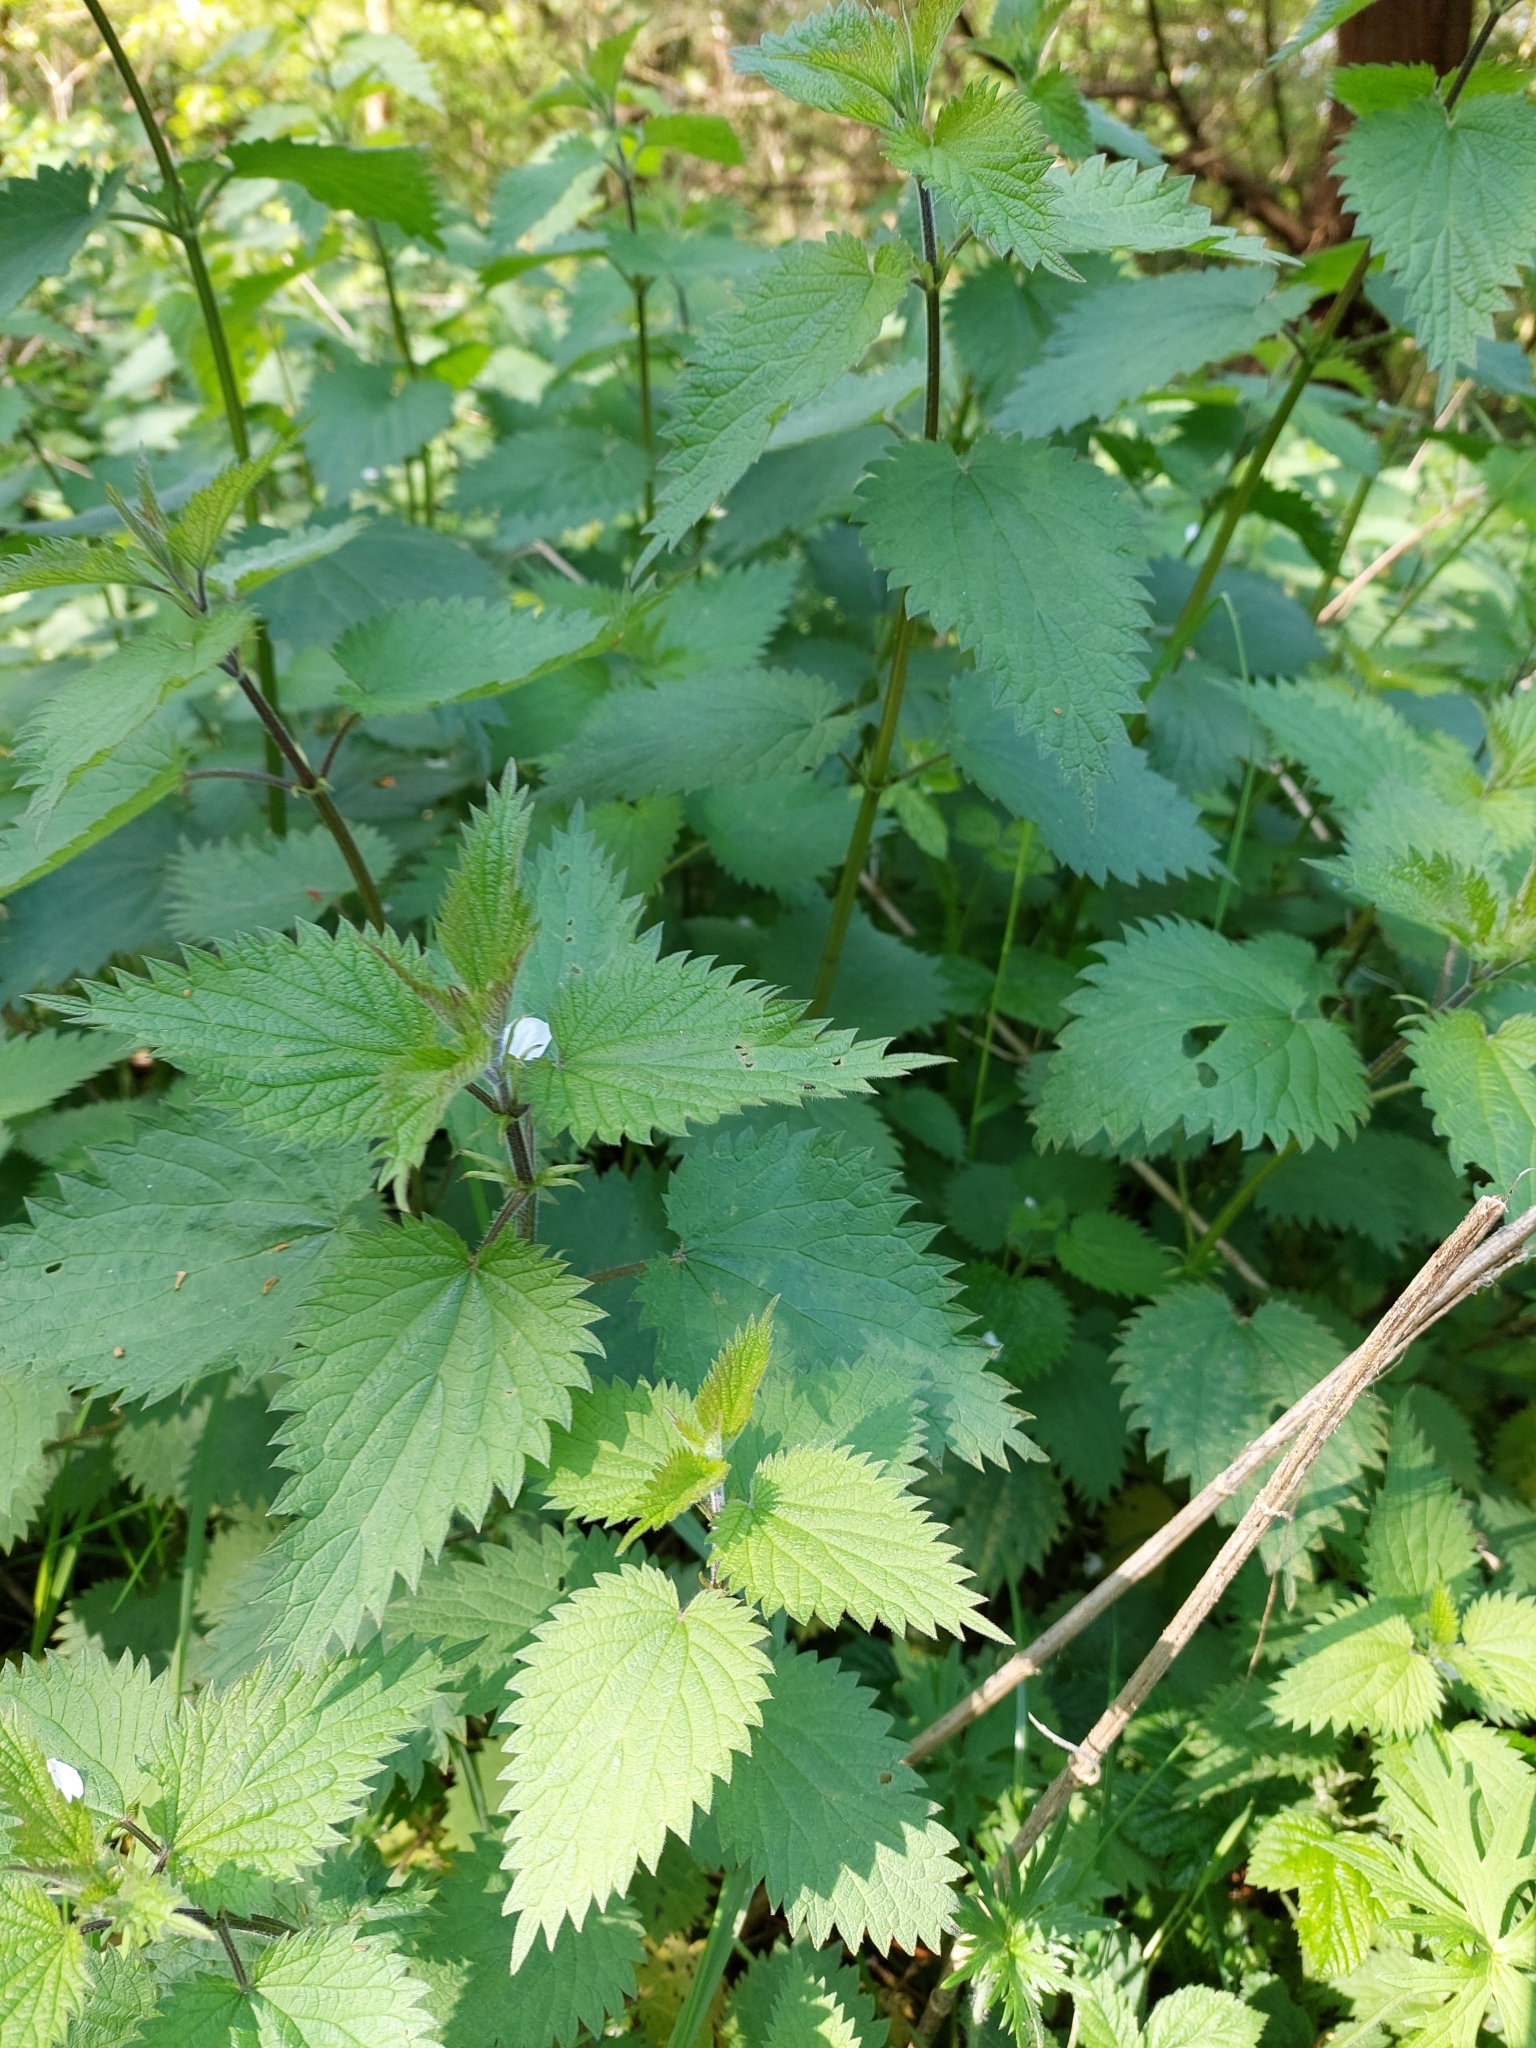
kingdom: Plantae
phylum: Tracheophyta
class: Magnoliopsida
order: Rosales
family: Urticaceae
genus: Urtica
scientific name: Urtica dioica
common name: Common nettle
